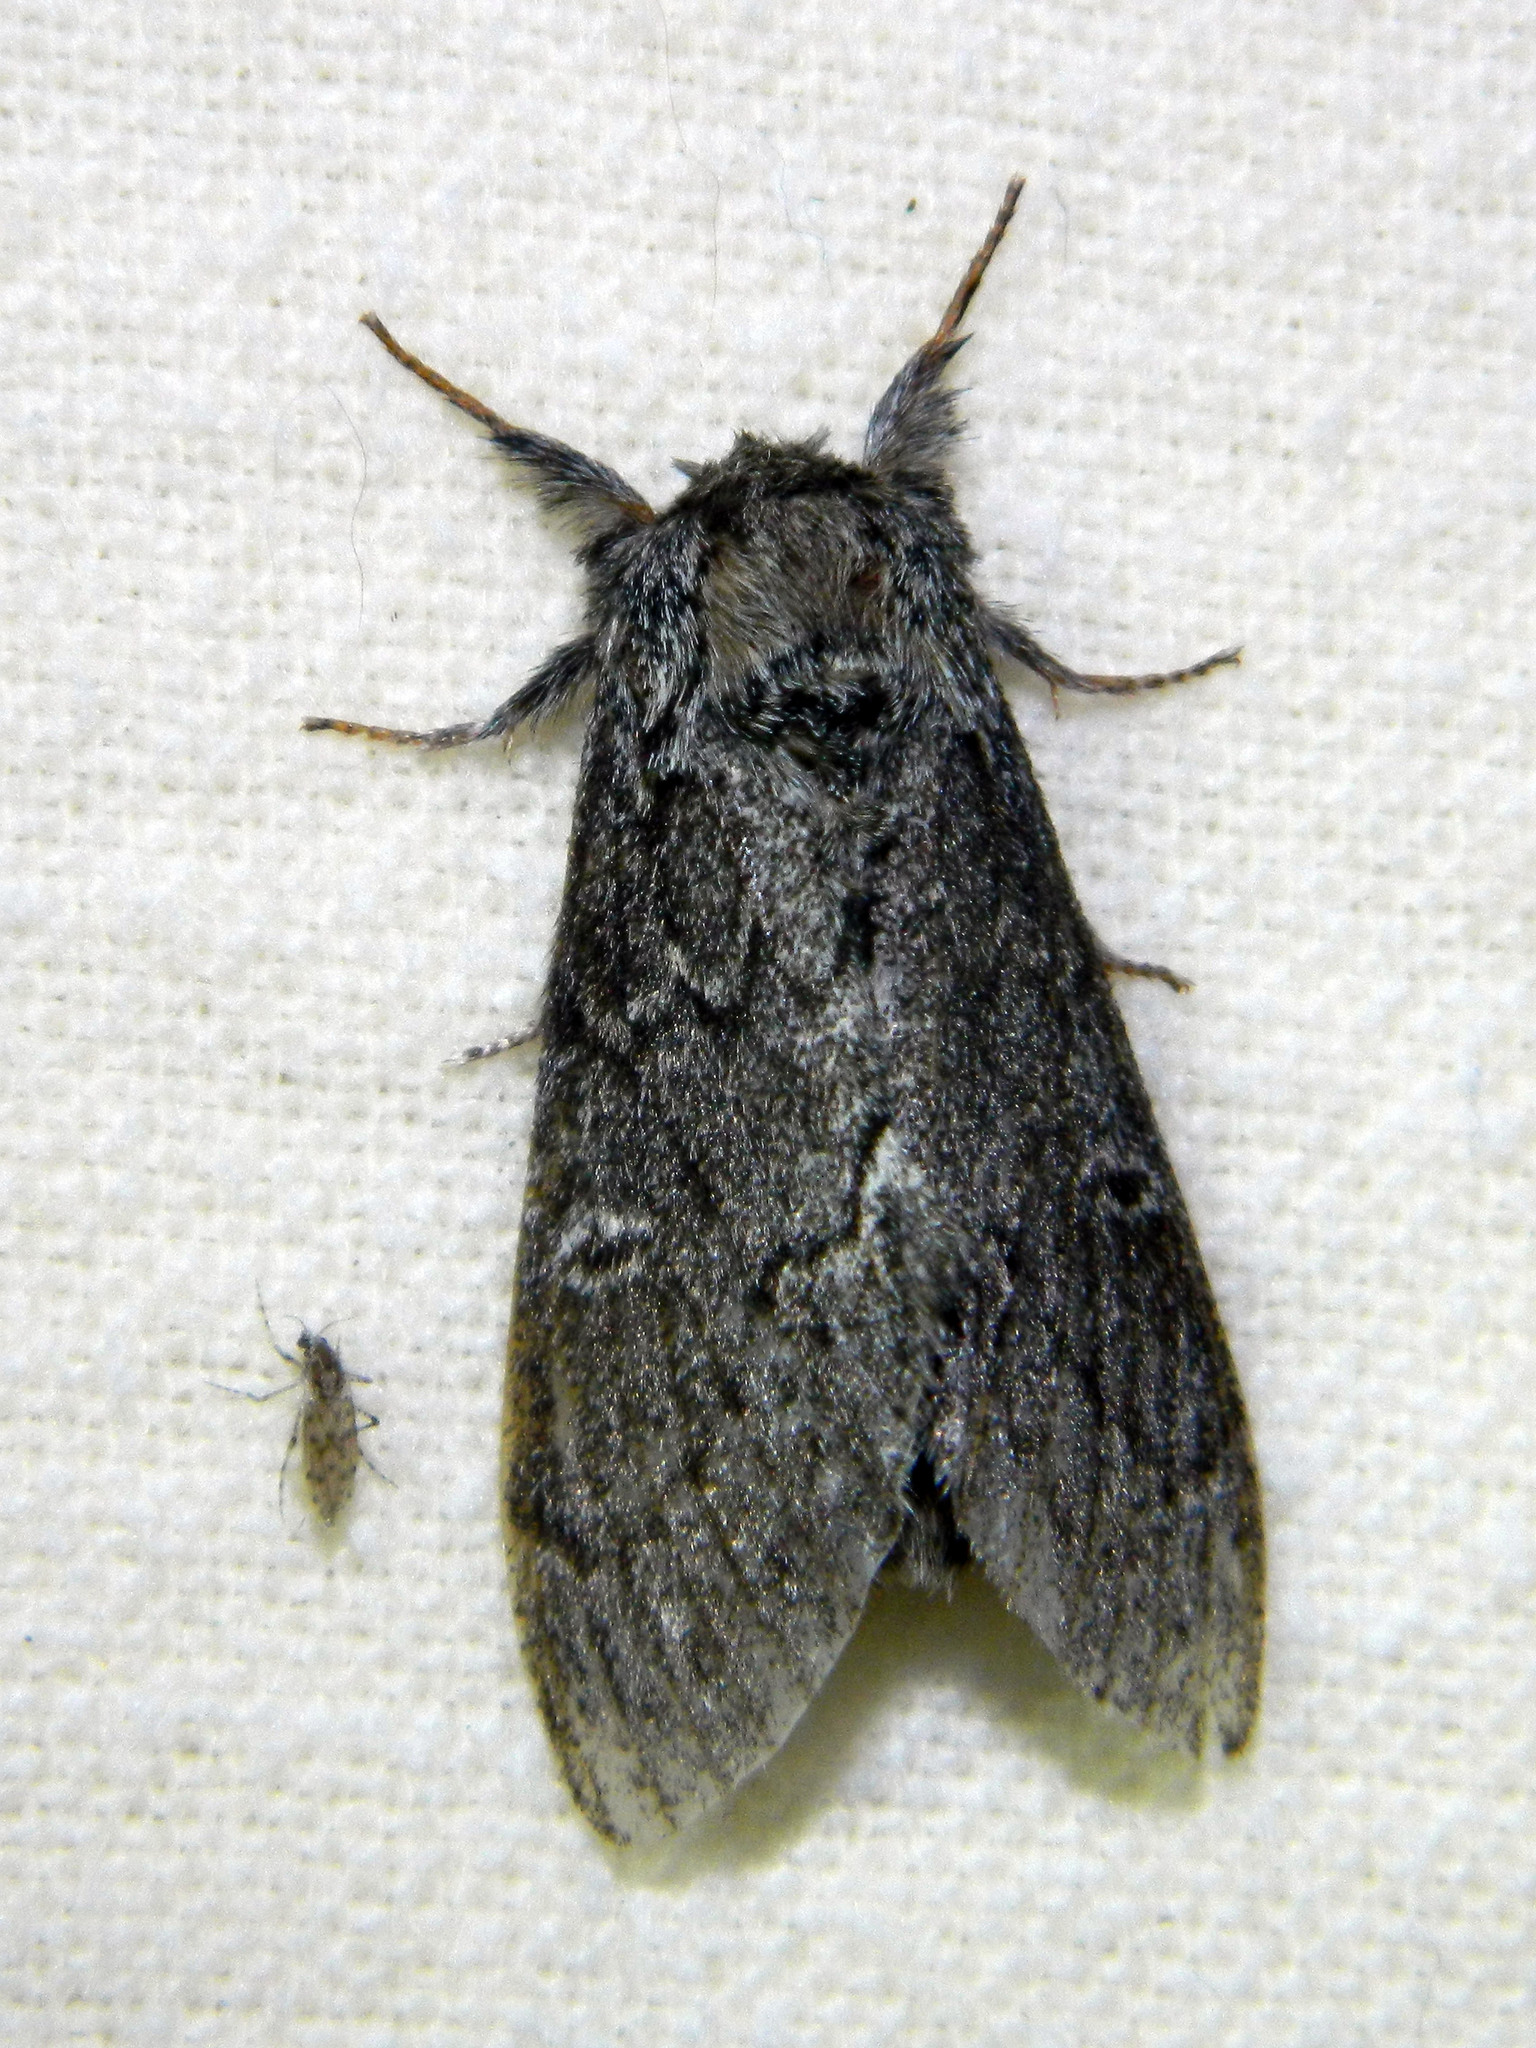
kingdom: Animalia
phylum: Arthropoda
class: Insecta
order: Lepidoptera
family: Notodontidae
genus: Notodonta
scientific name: Notodonta torva
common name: Large dark prominent
